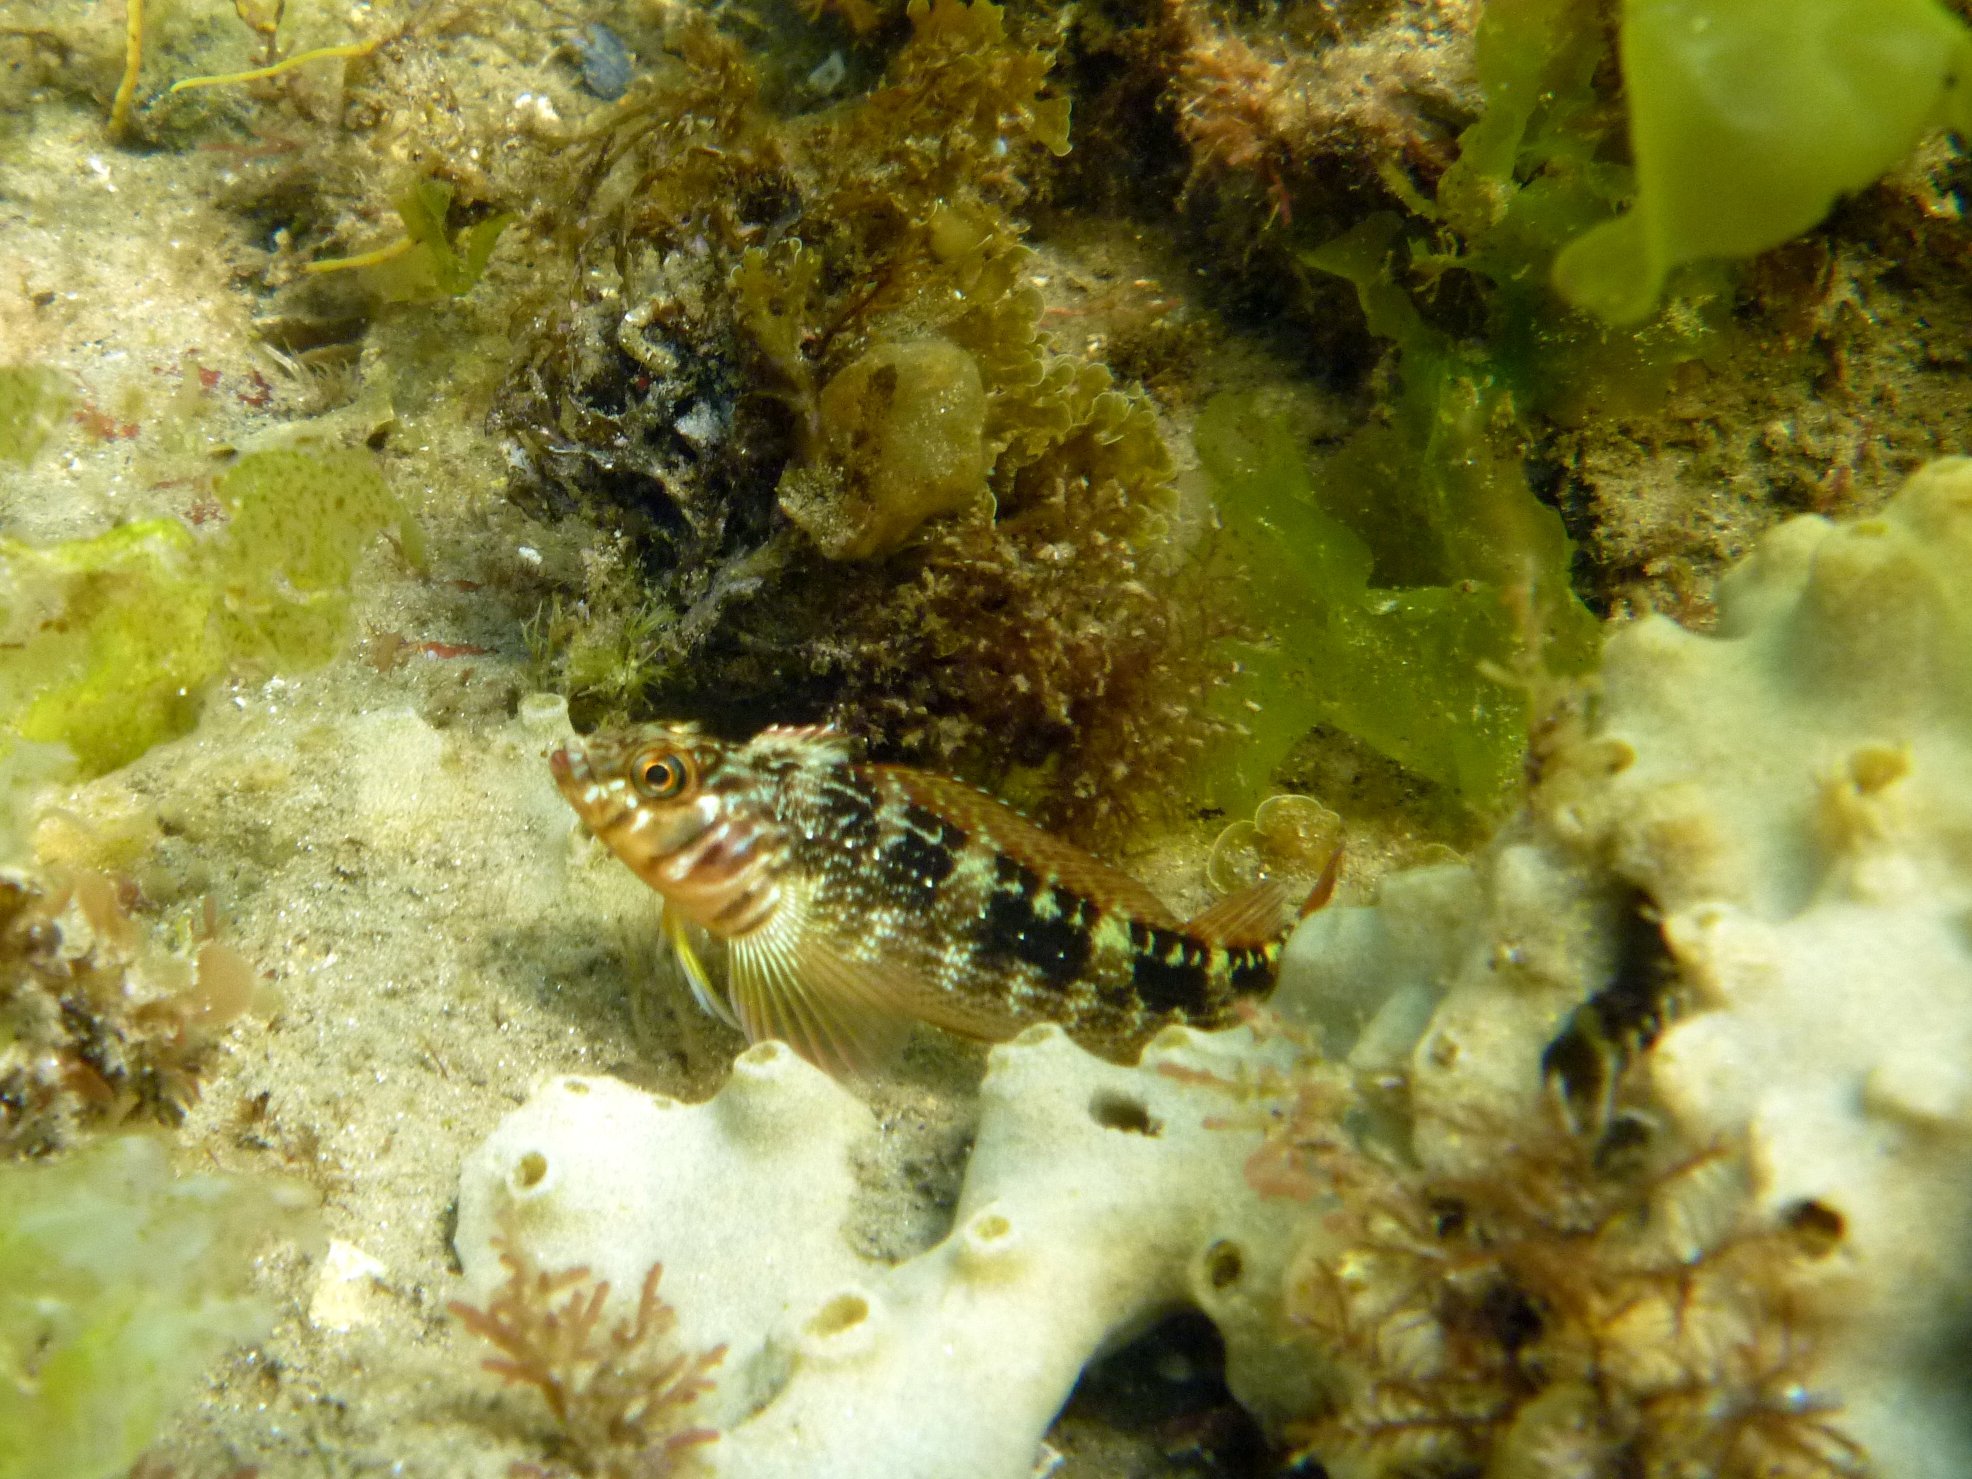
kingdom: Animalia
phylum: Chordata
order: Perciformes
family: Tripterygiidae
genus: Forsterygion
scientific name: Forsterygion varium
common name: Variable triplefin
